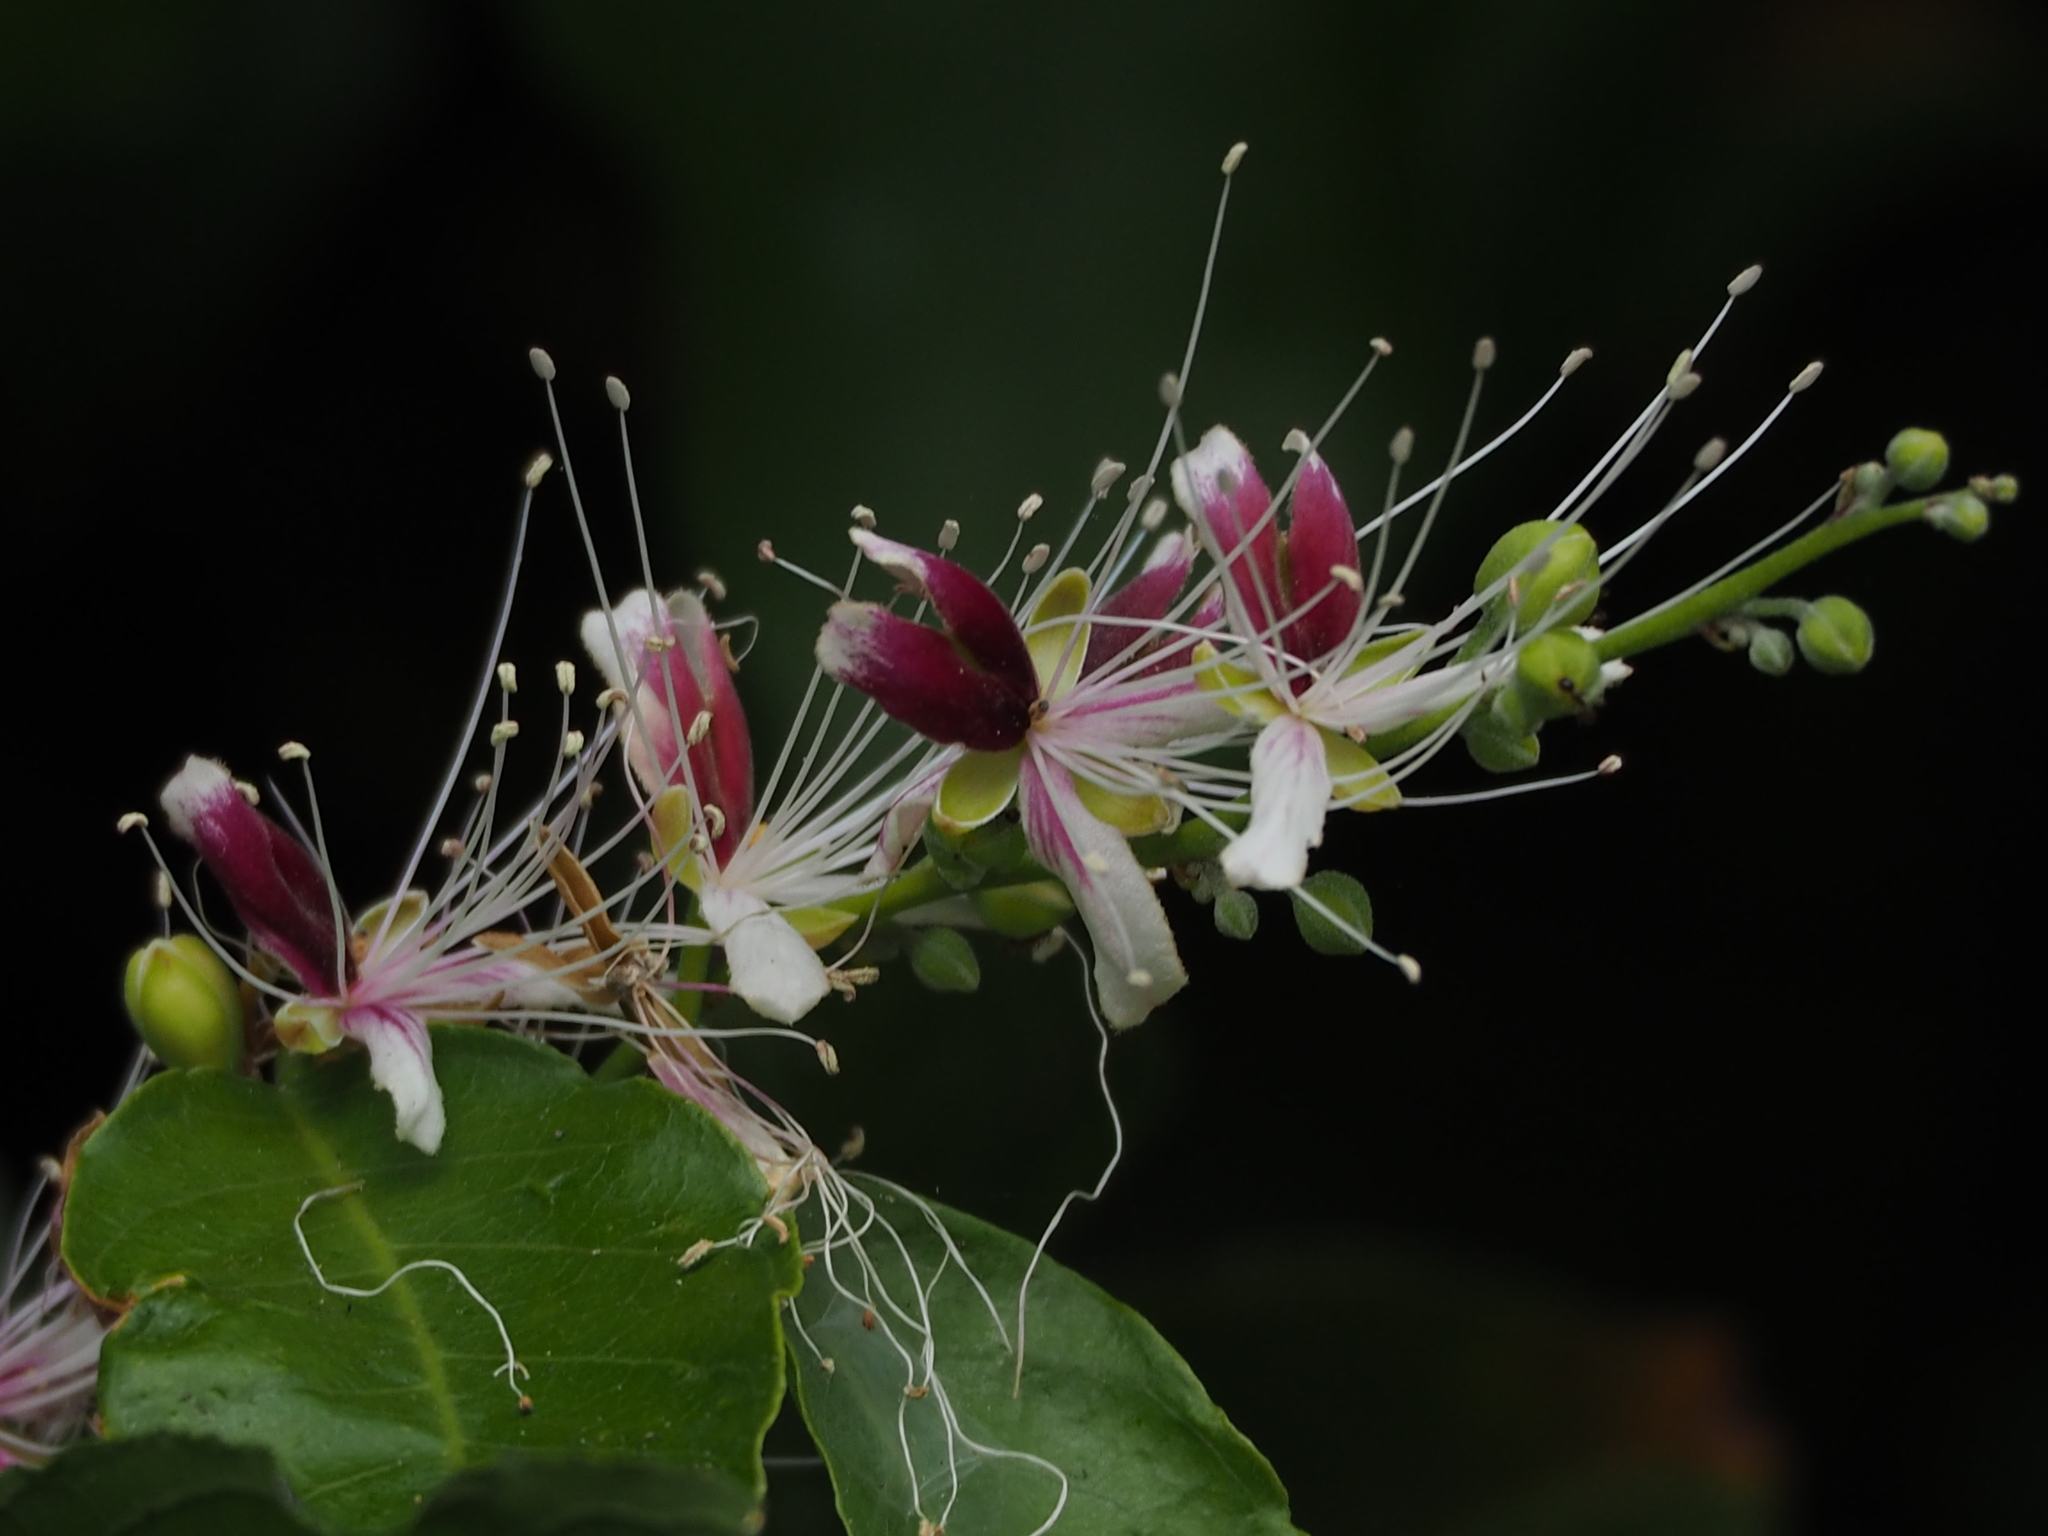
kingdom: Plantae
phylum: Tracheophyta
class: Magnoliopsida
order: Brassicales
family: Capparaceae
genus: Capparis
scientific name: Capparis henryi
